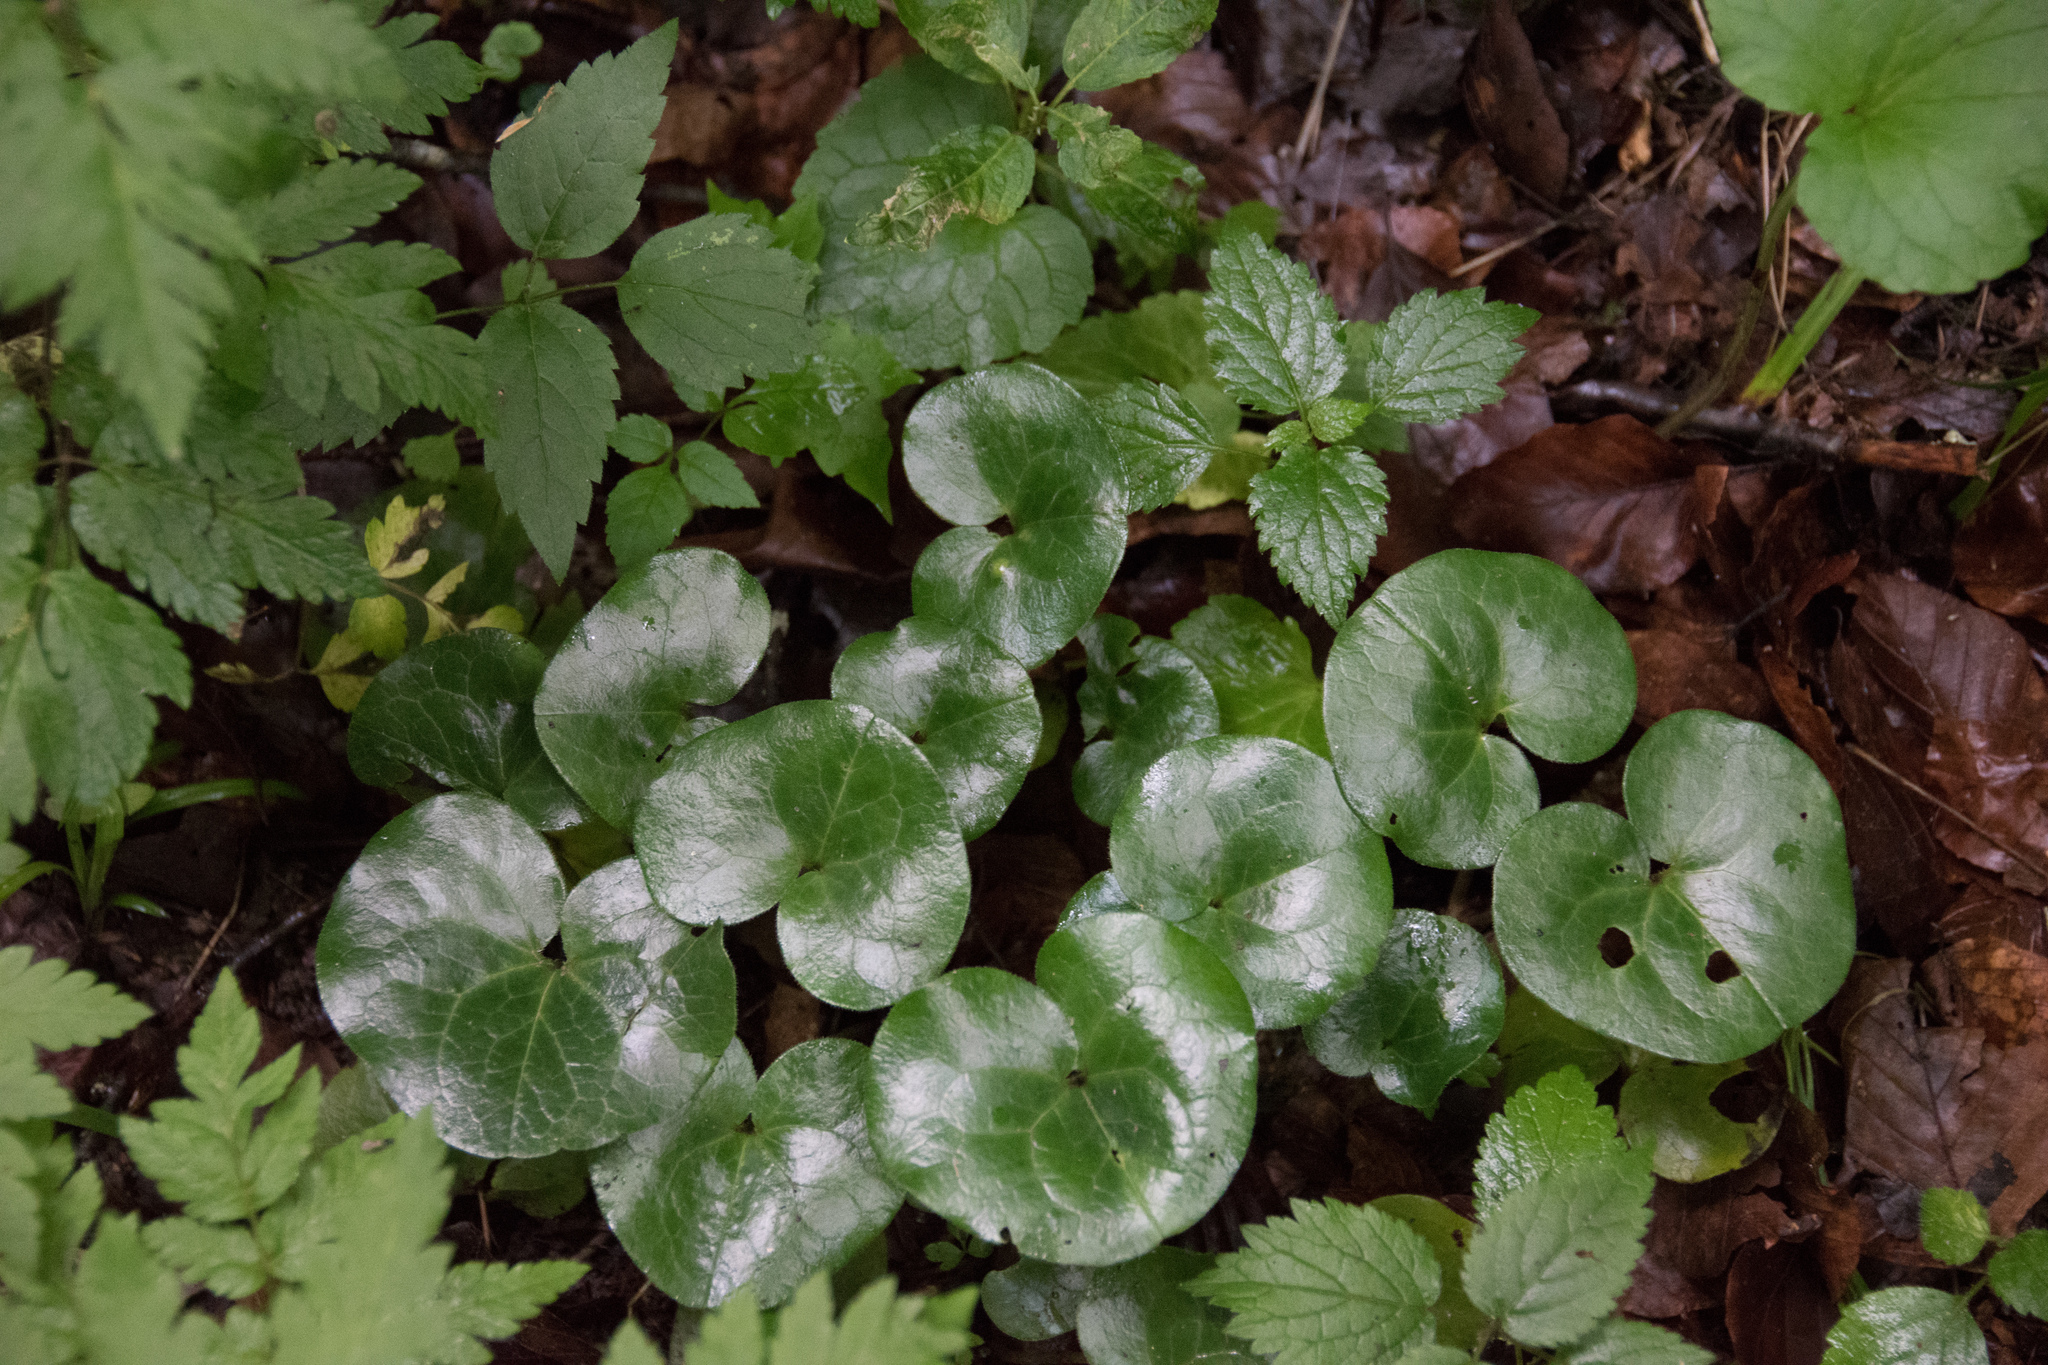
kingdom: Plantae
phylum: Tracheophyta
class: Magnoliopsida
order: Piperales
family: Aristolochiaceae
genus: Asarum
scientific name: Asarum europaeum
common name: Asarabacca
